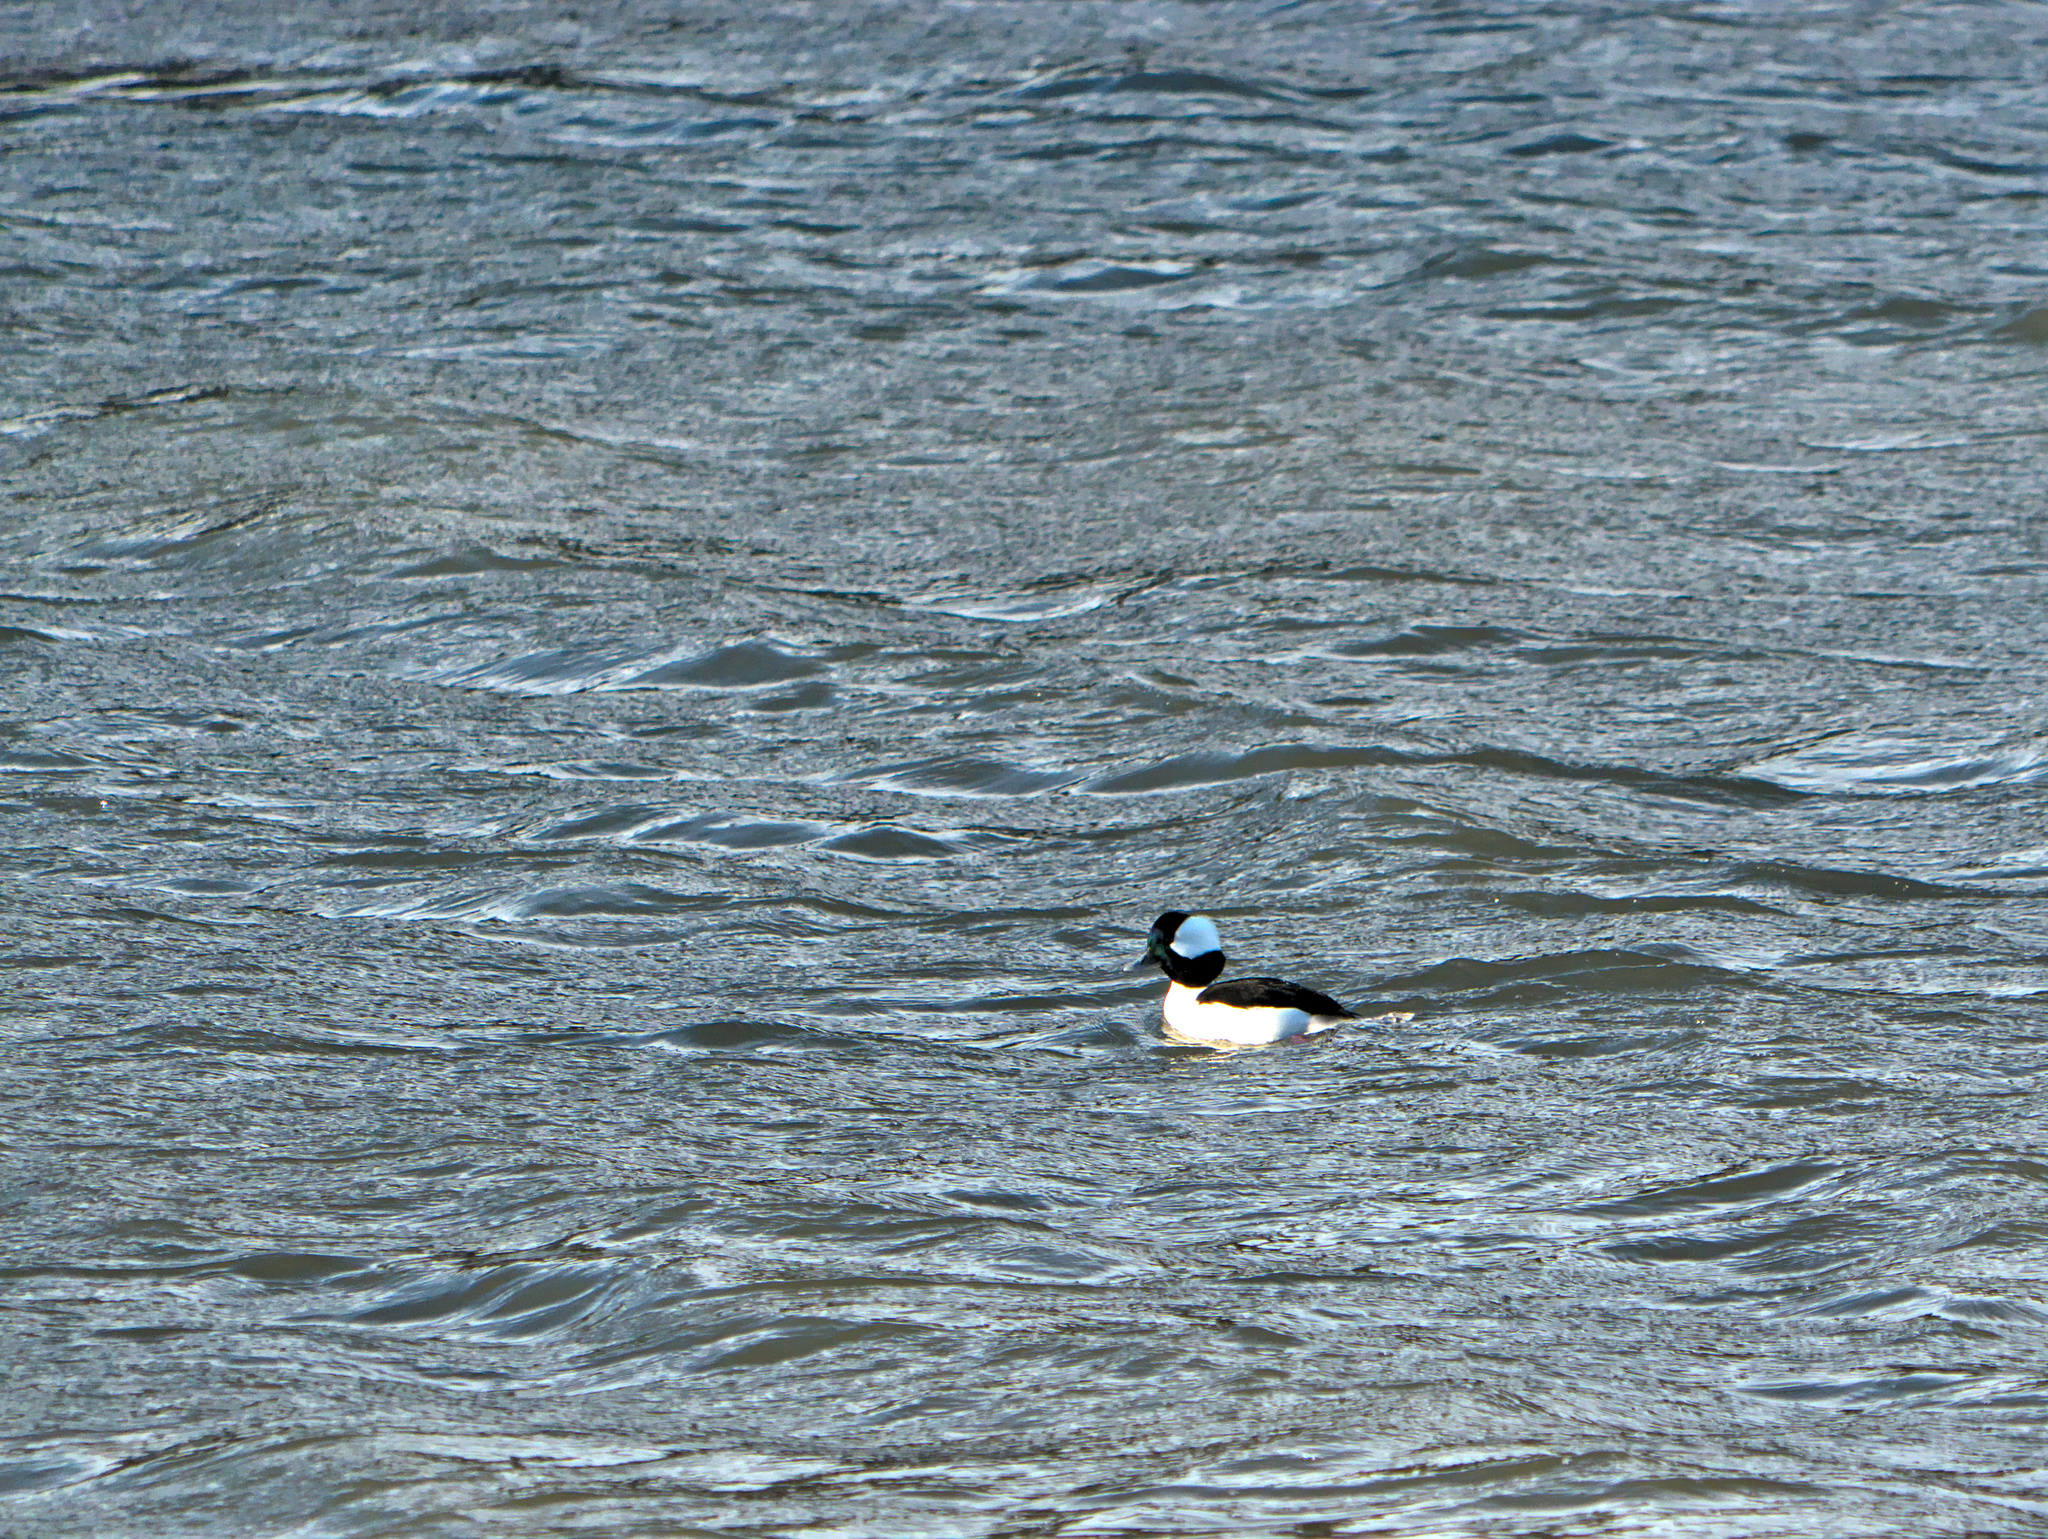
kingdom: Animalia
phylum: Chordata
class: Aves
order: Anseriformes
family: Anatidae
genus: Bucephala
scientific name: Bucephala albeola
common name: Bufflehead
